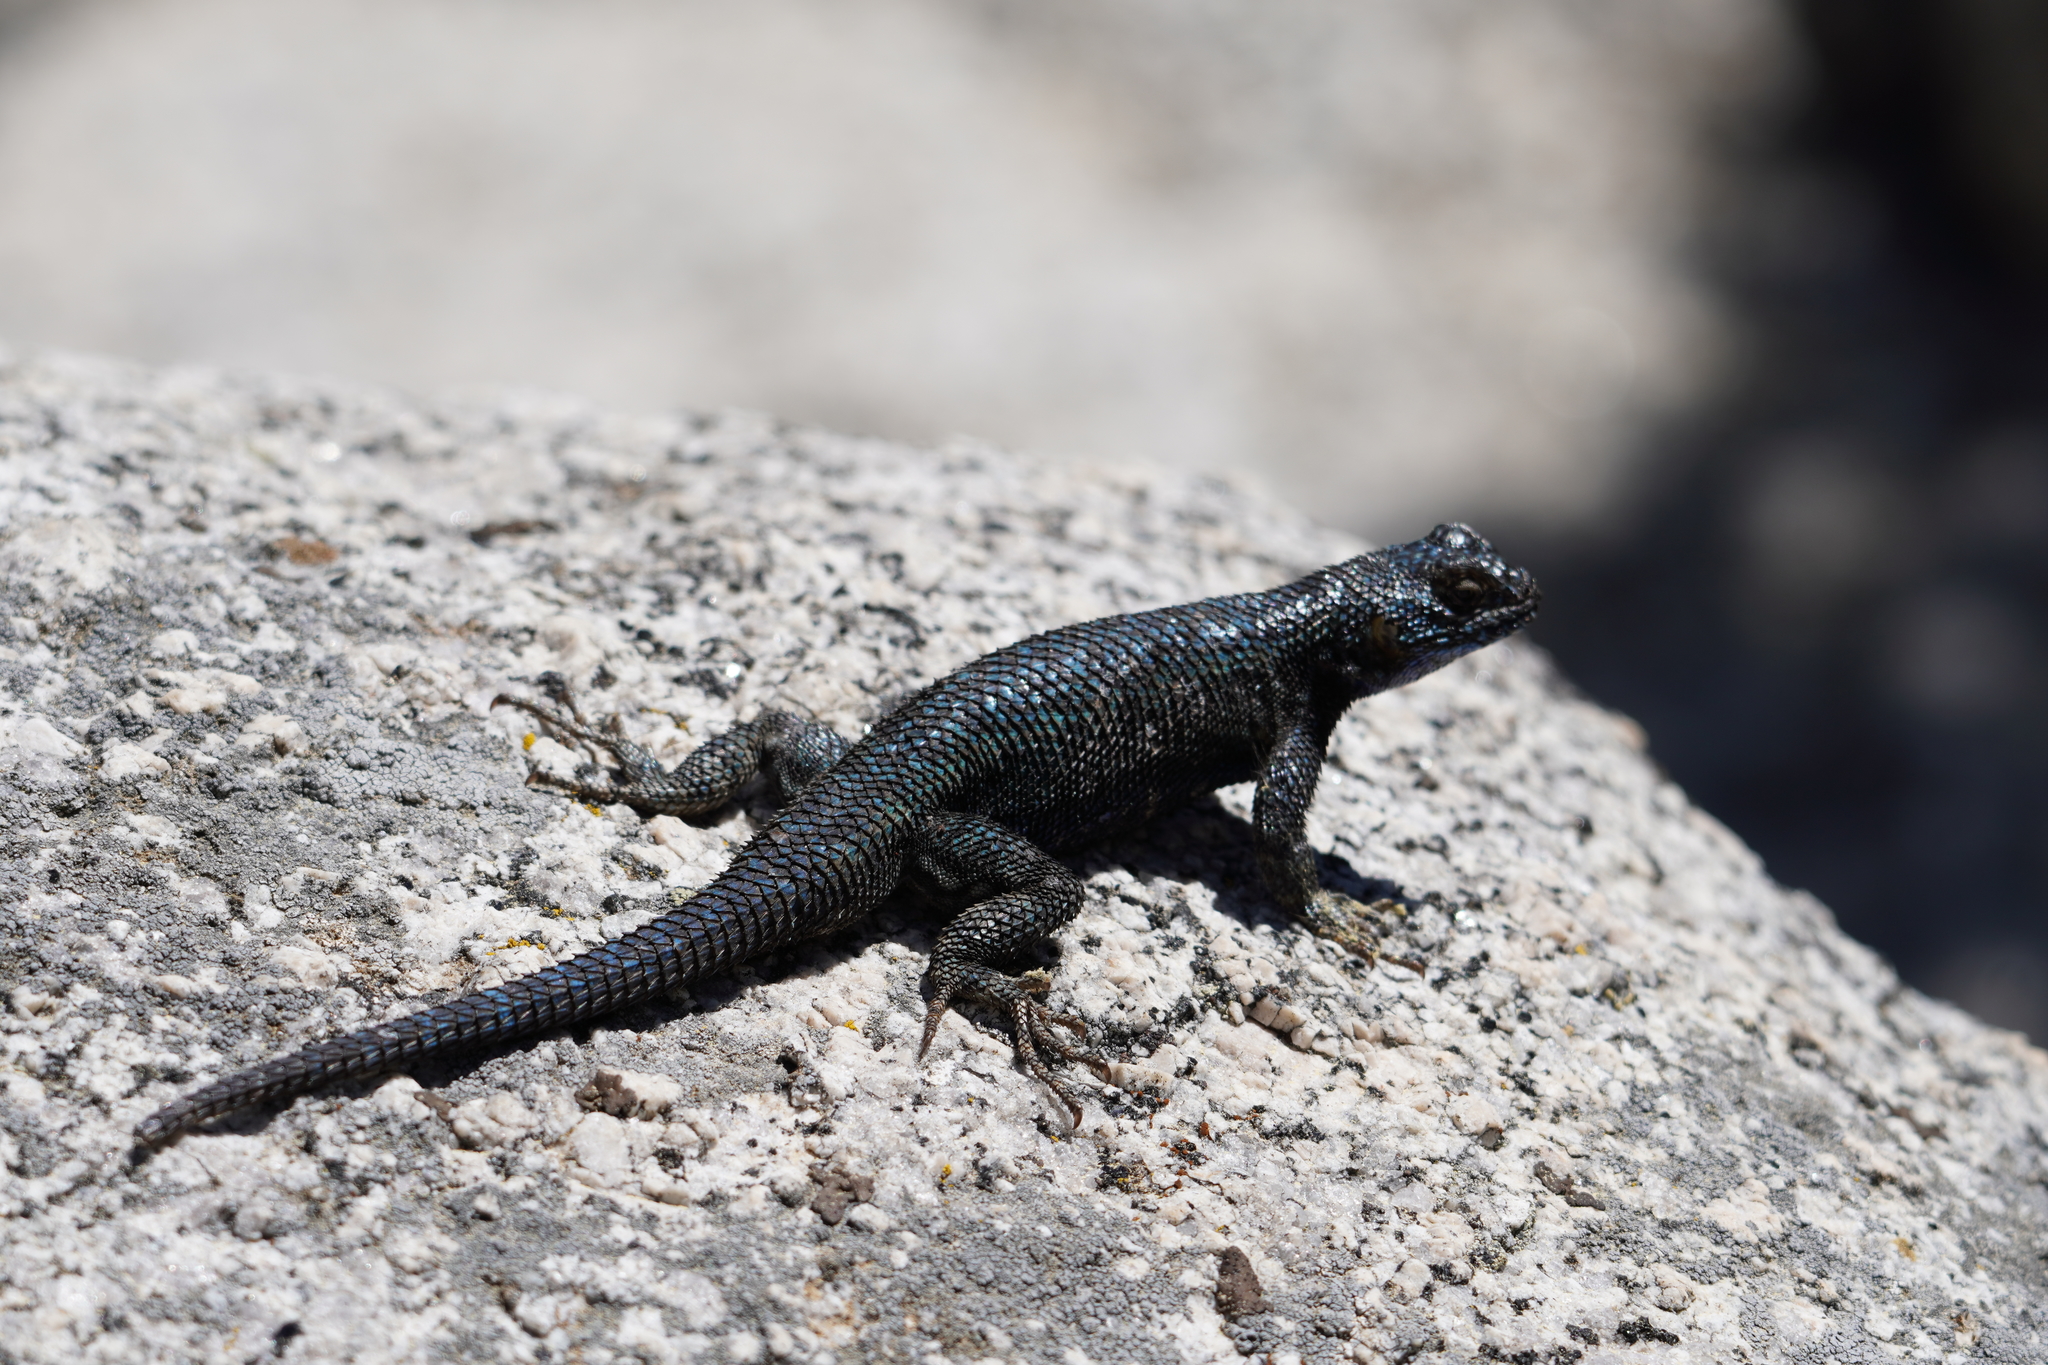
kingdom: Animalia
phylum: Chordata
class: Squamata
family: Phrynosomatidae
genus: Sceloporus
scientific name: Sceloporus occidentalis
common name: Western fence lizard
